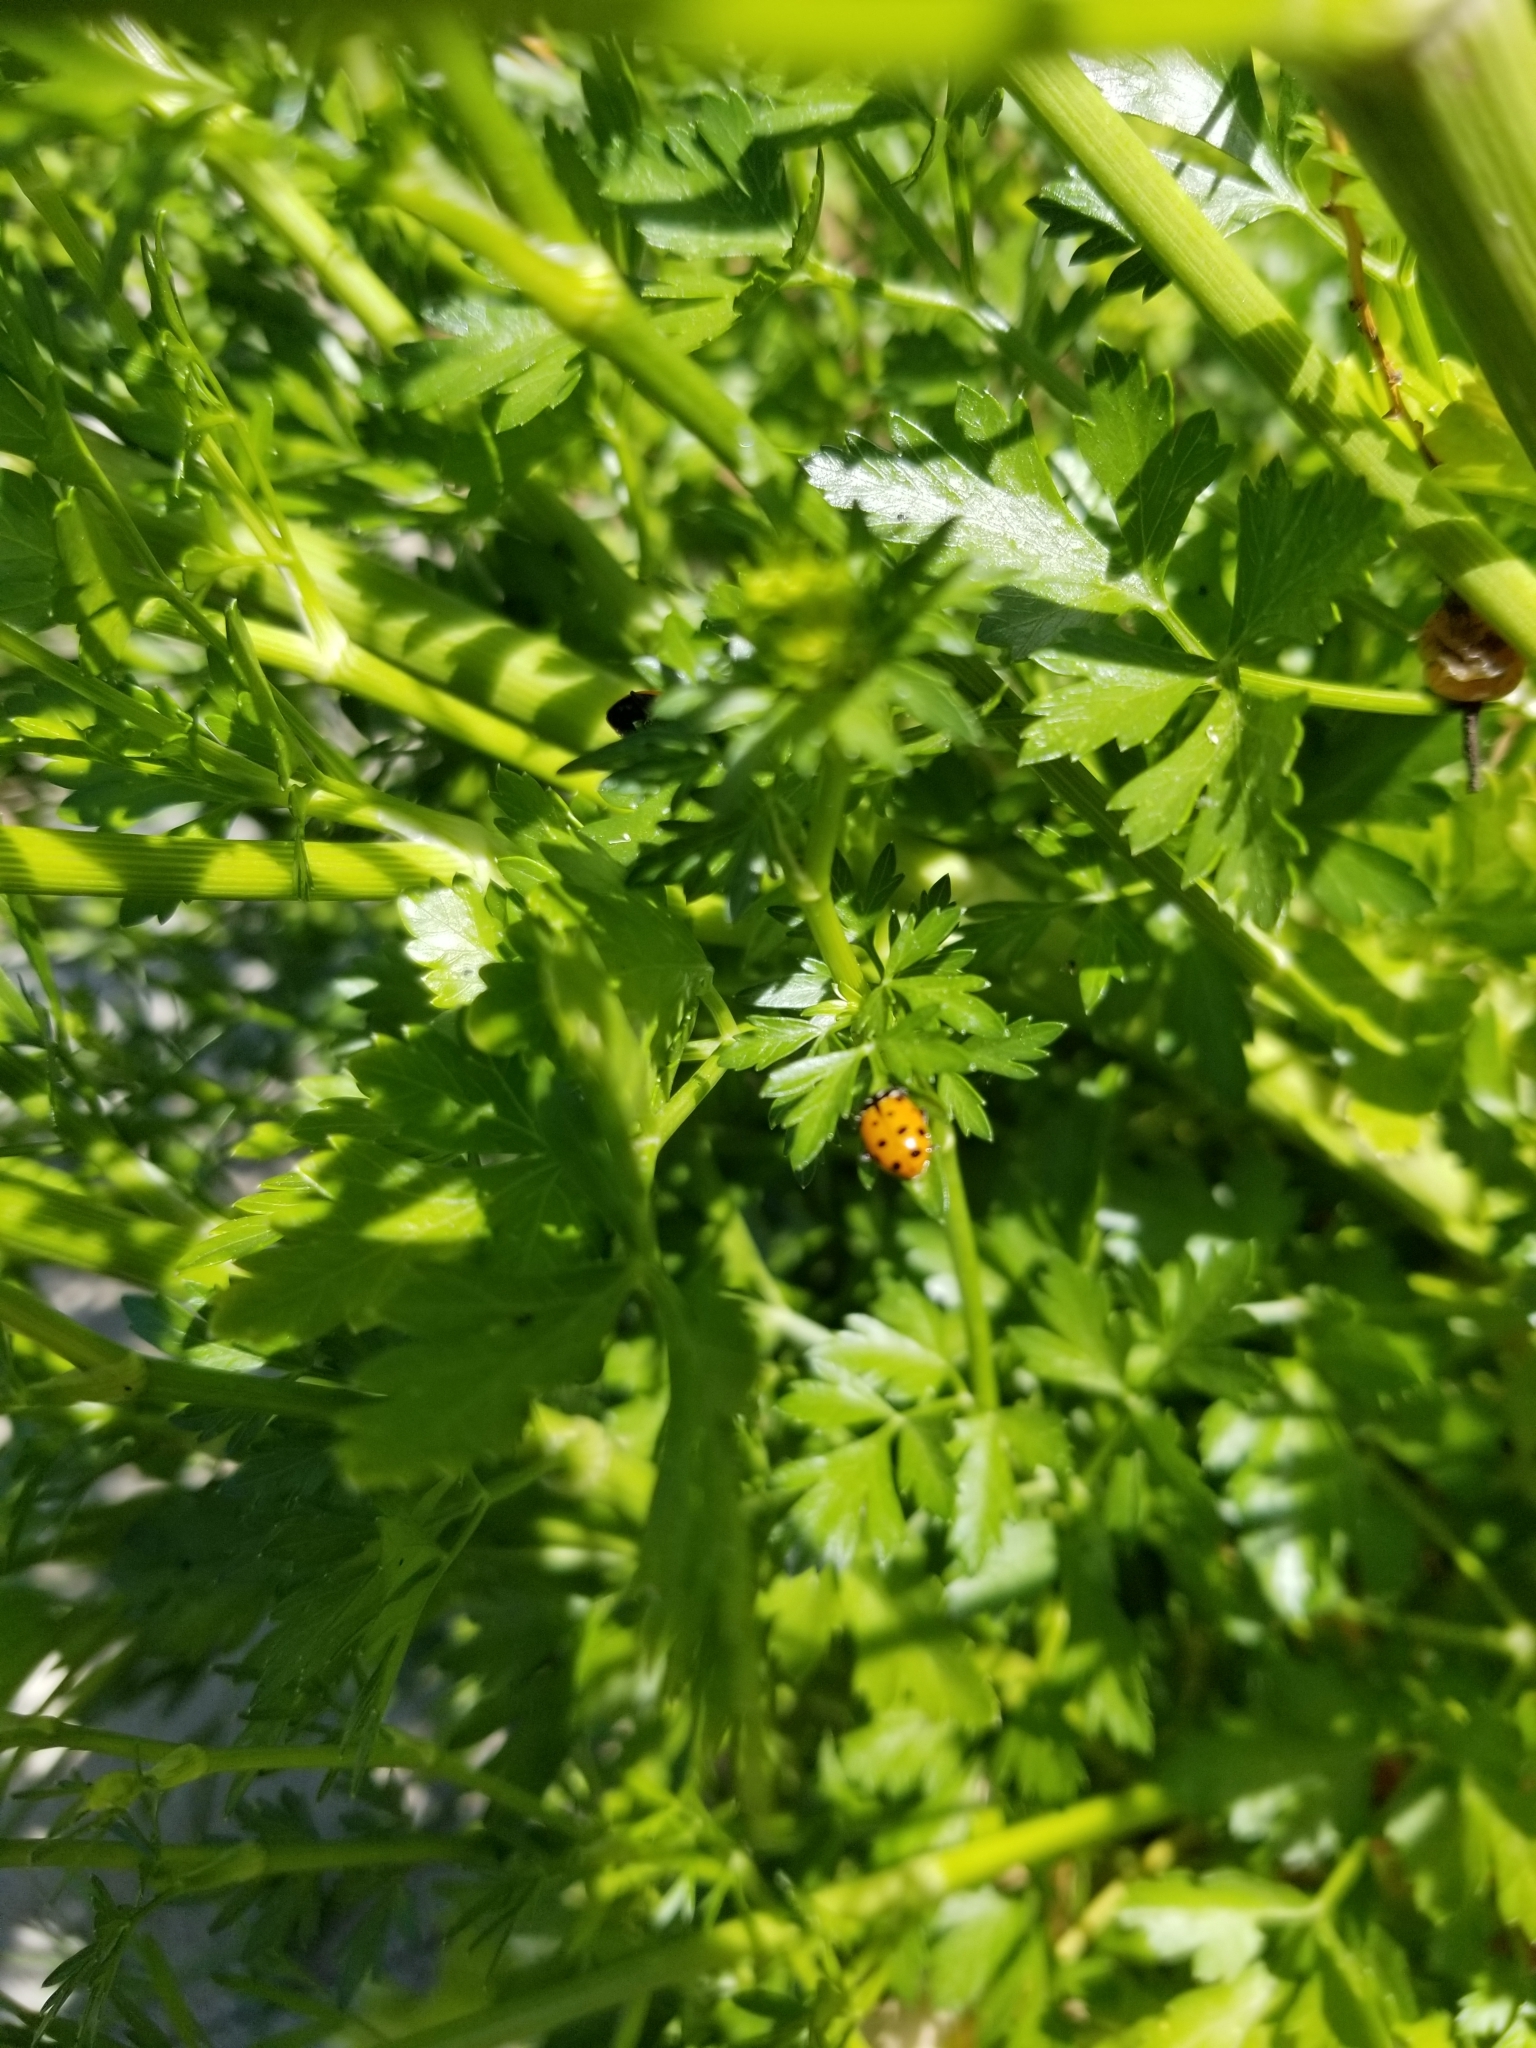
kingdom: Animalia
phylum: Arthropoda
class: Insecta
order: Coleoptera
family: Coccinellidae
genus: Hippodamia
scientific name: Hippodamia convergens
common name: Convergent lady beetle
